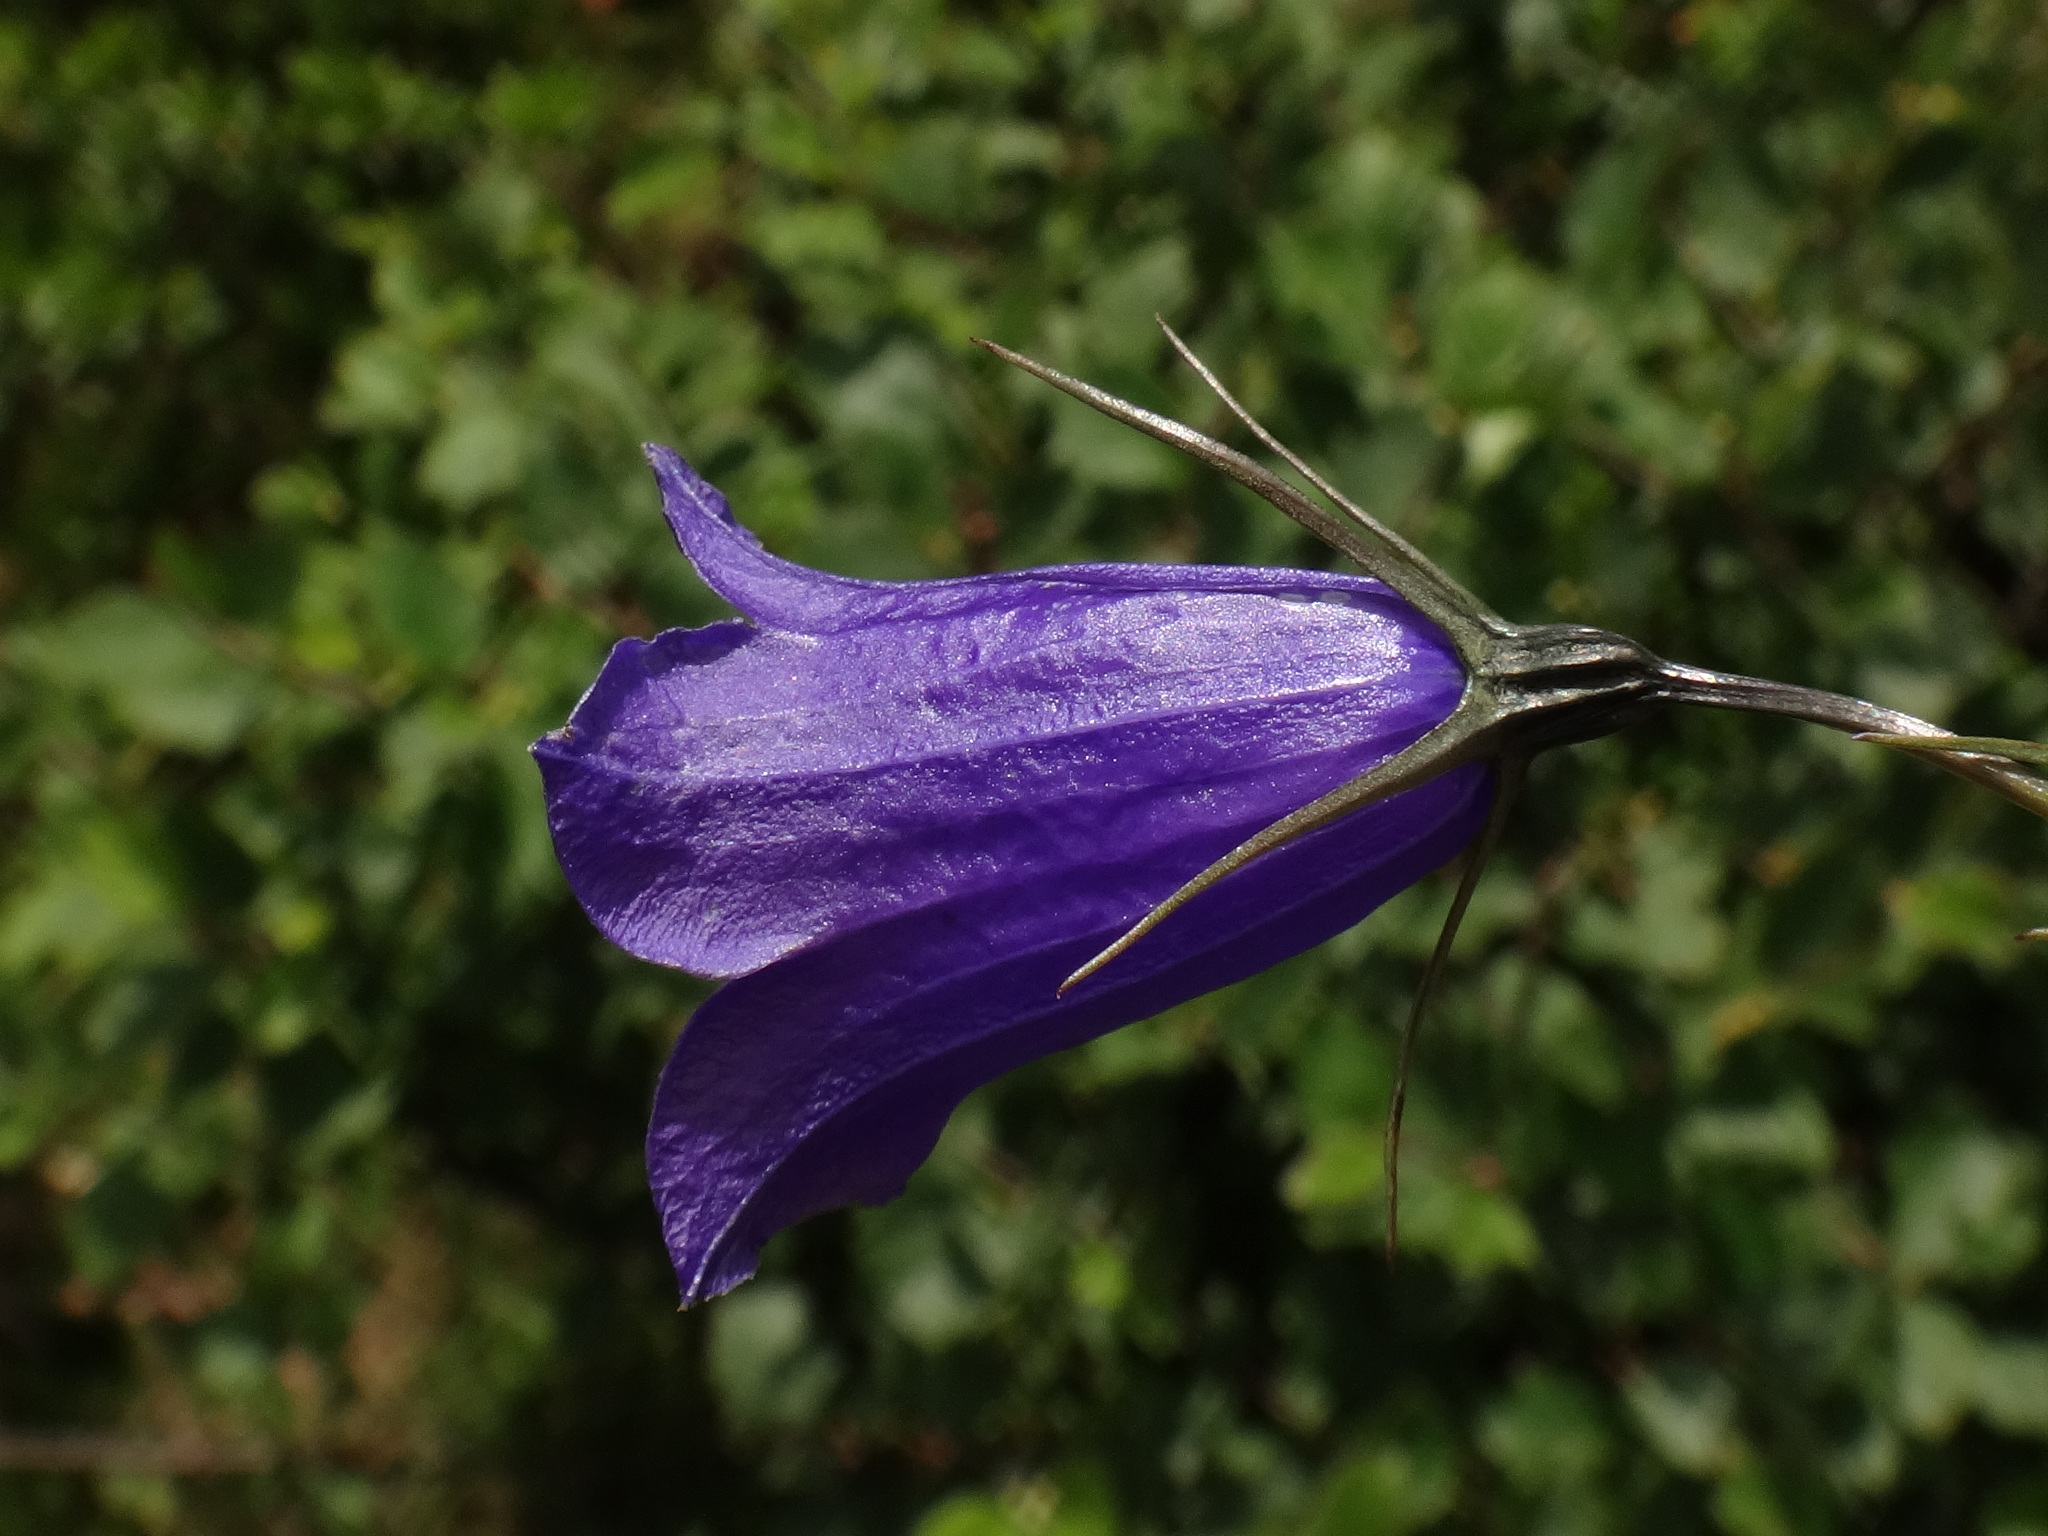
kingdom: Plantae
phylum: Tracheophyta
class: Magnoliopsida
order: Asterales
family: Campanulaceae
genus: Campanula
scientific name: Campanula scheuchzeri
